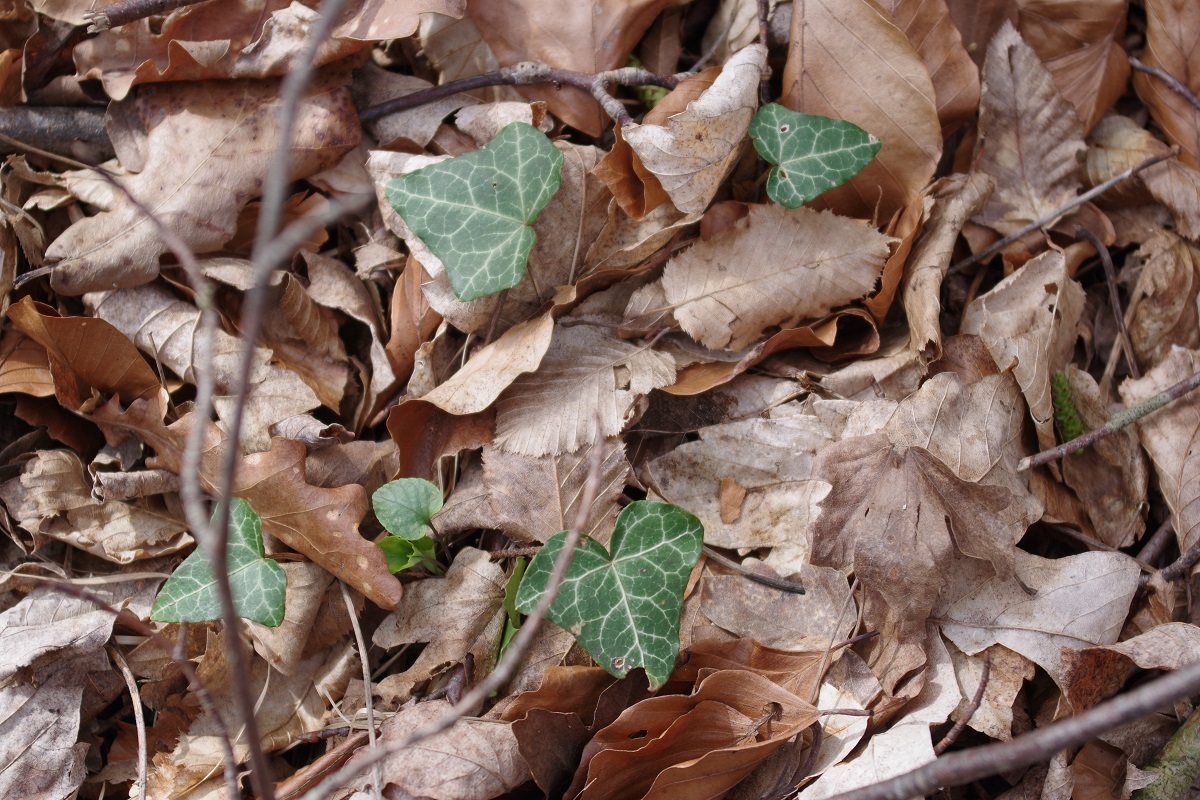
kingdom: Plantae
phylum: Tracheophyta
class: Magnoliopsida
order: Apiales
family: Araliaceae
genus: Hedera
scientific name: Hedera helix
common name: Ivy
